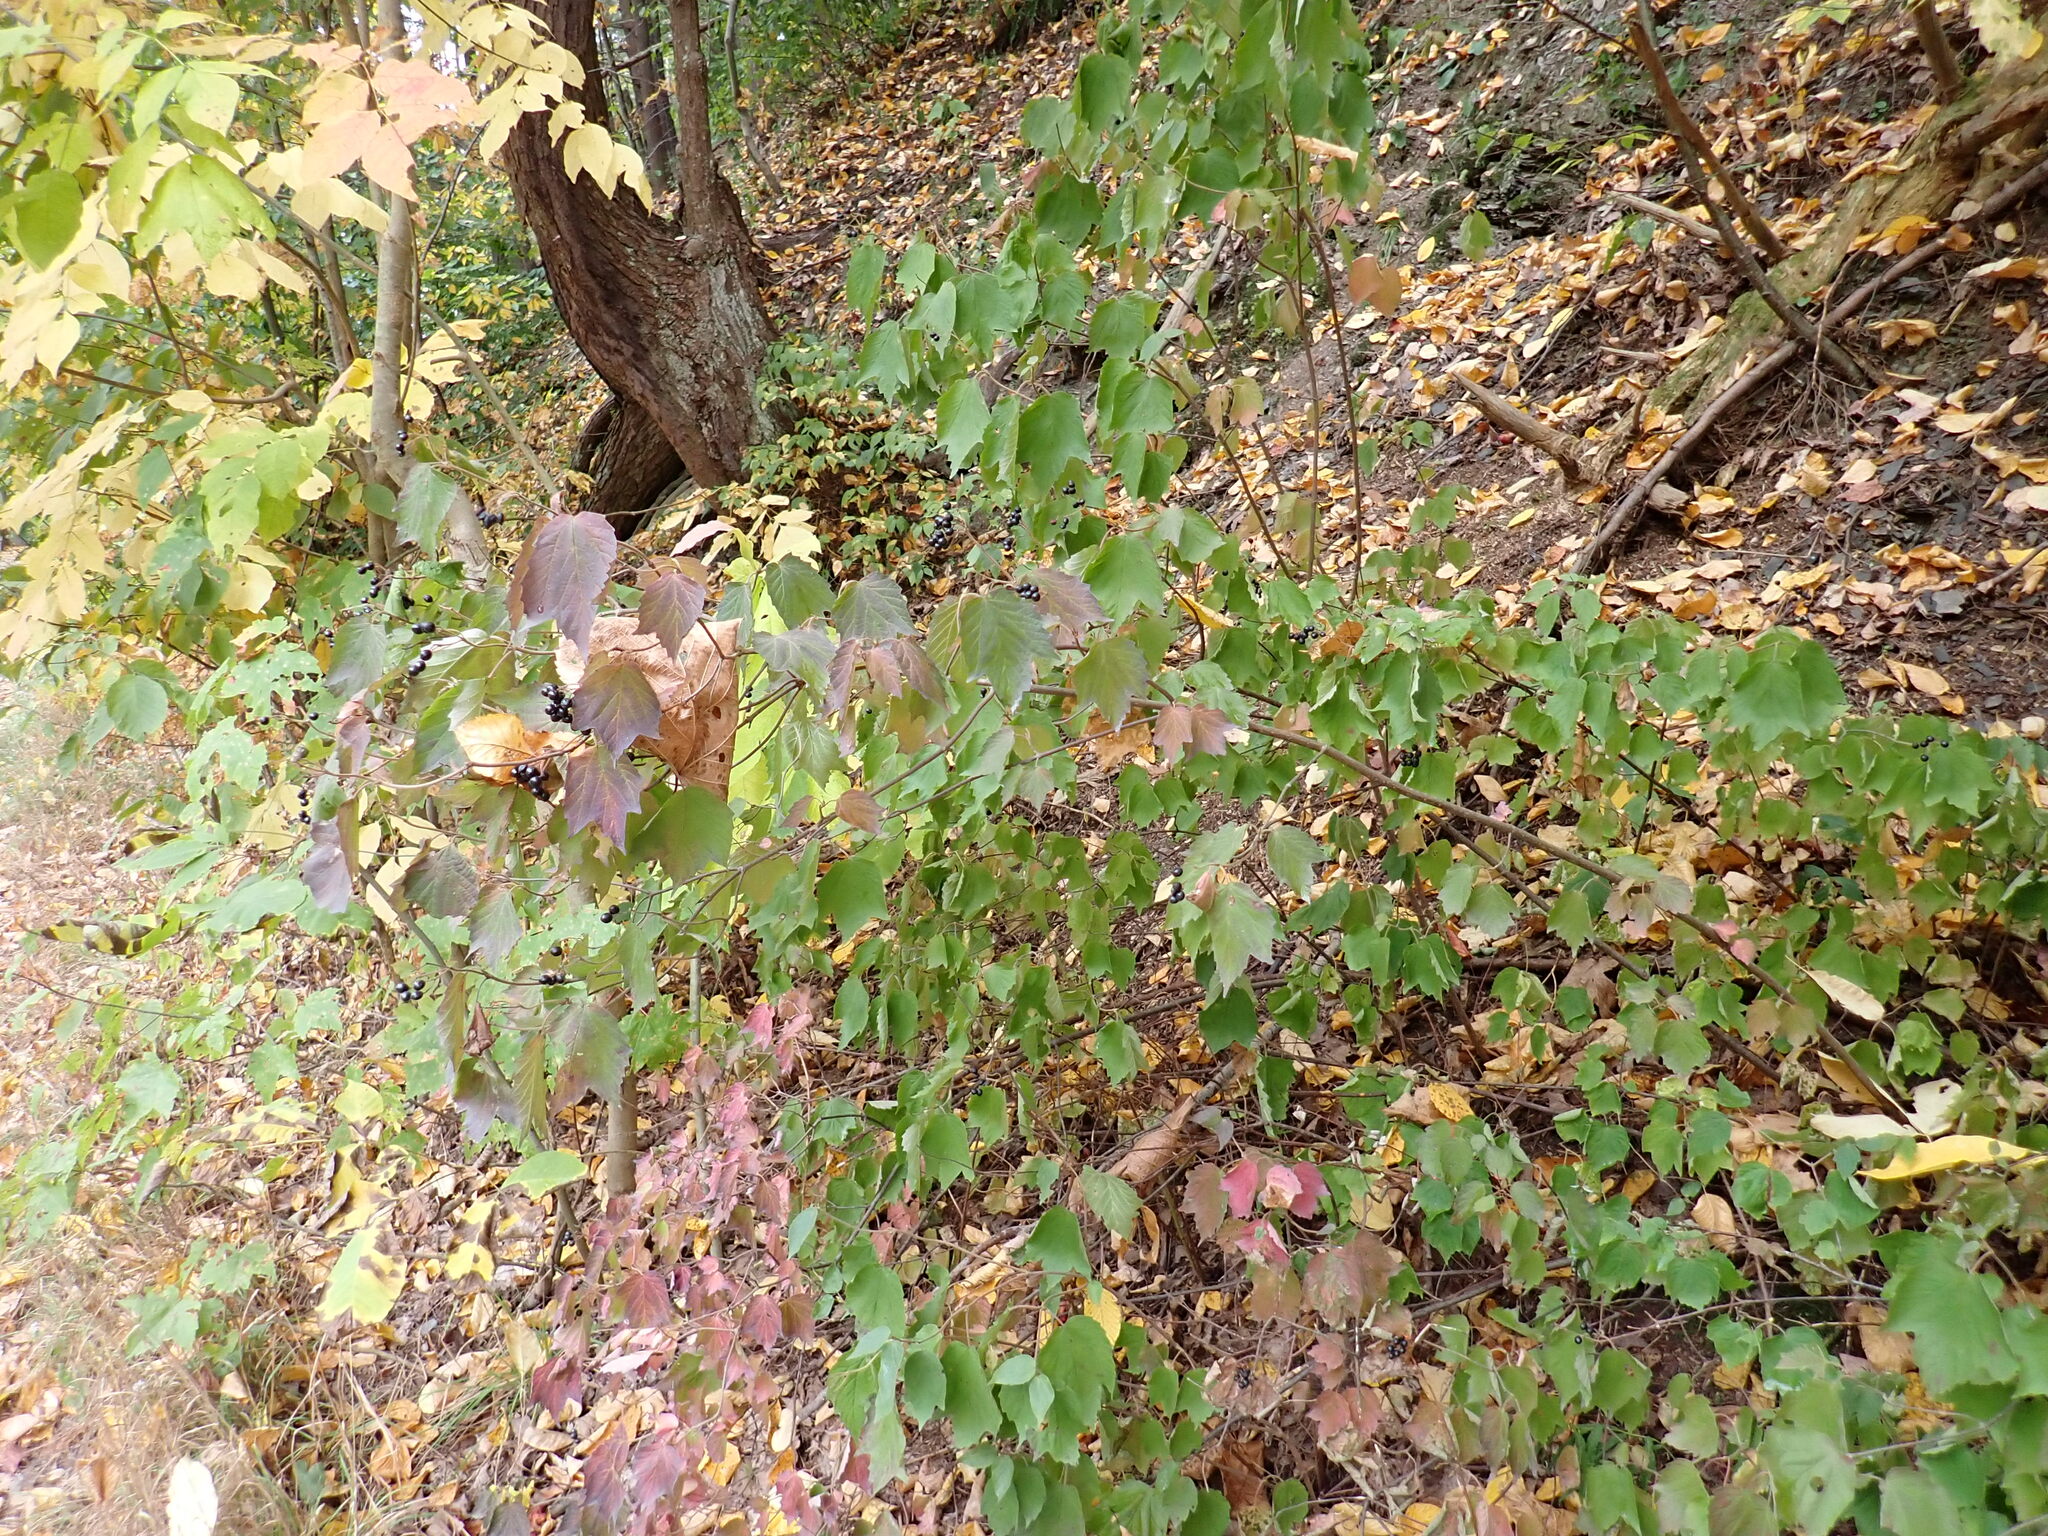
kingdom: Plantae
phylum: Tracheophyta
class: Magnoliopsida
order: Dipsacales
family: Viburnaceae
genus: Viburnum
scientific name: Viburnum acerifolium
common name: Dockmackie
